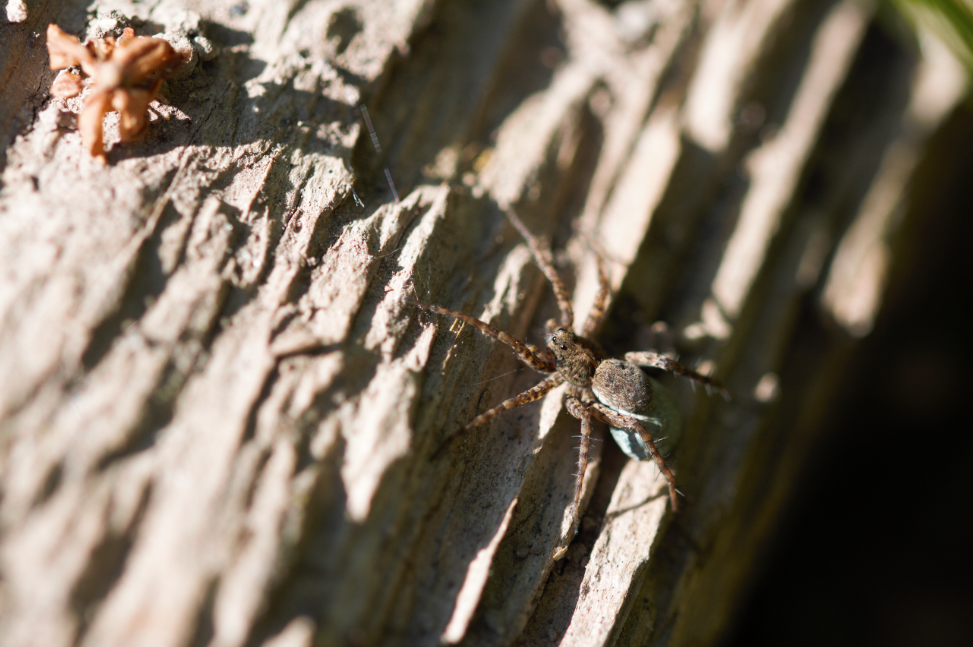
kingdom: Animalia
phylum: Arthropoda
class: Arachnida
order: Araneae
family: Lycosidae
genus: Pardosa
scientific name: Pardosa
